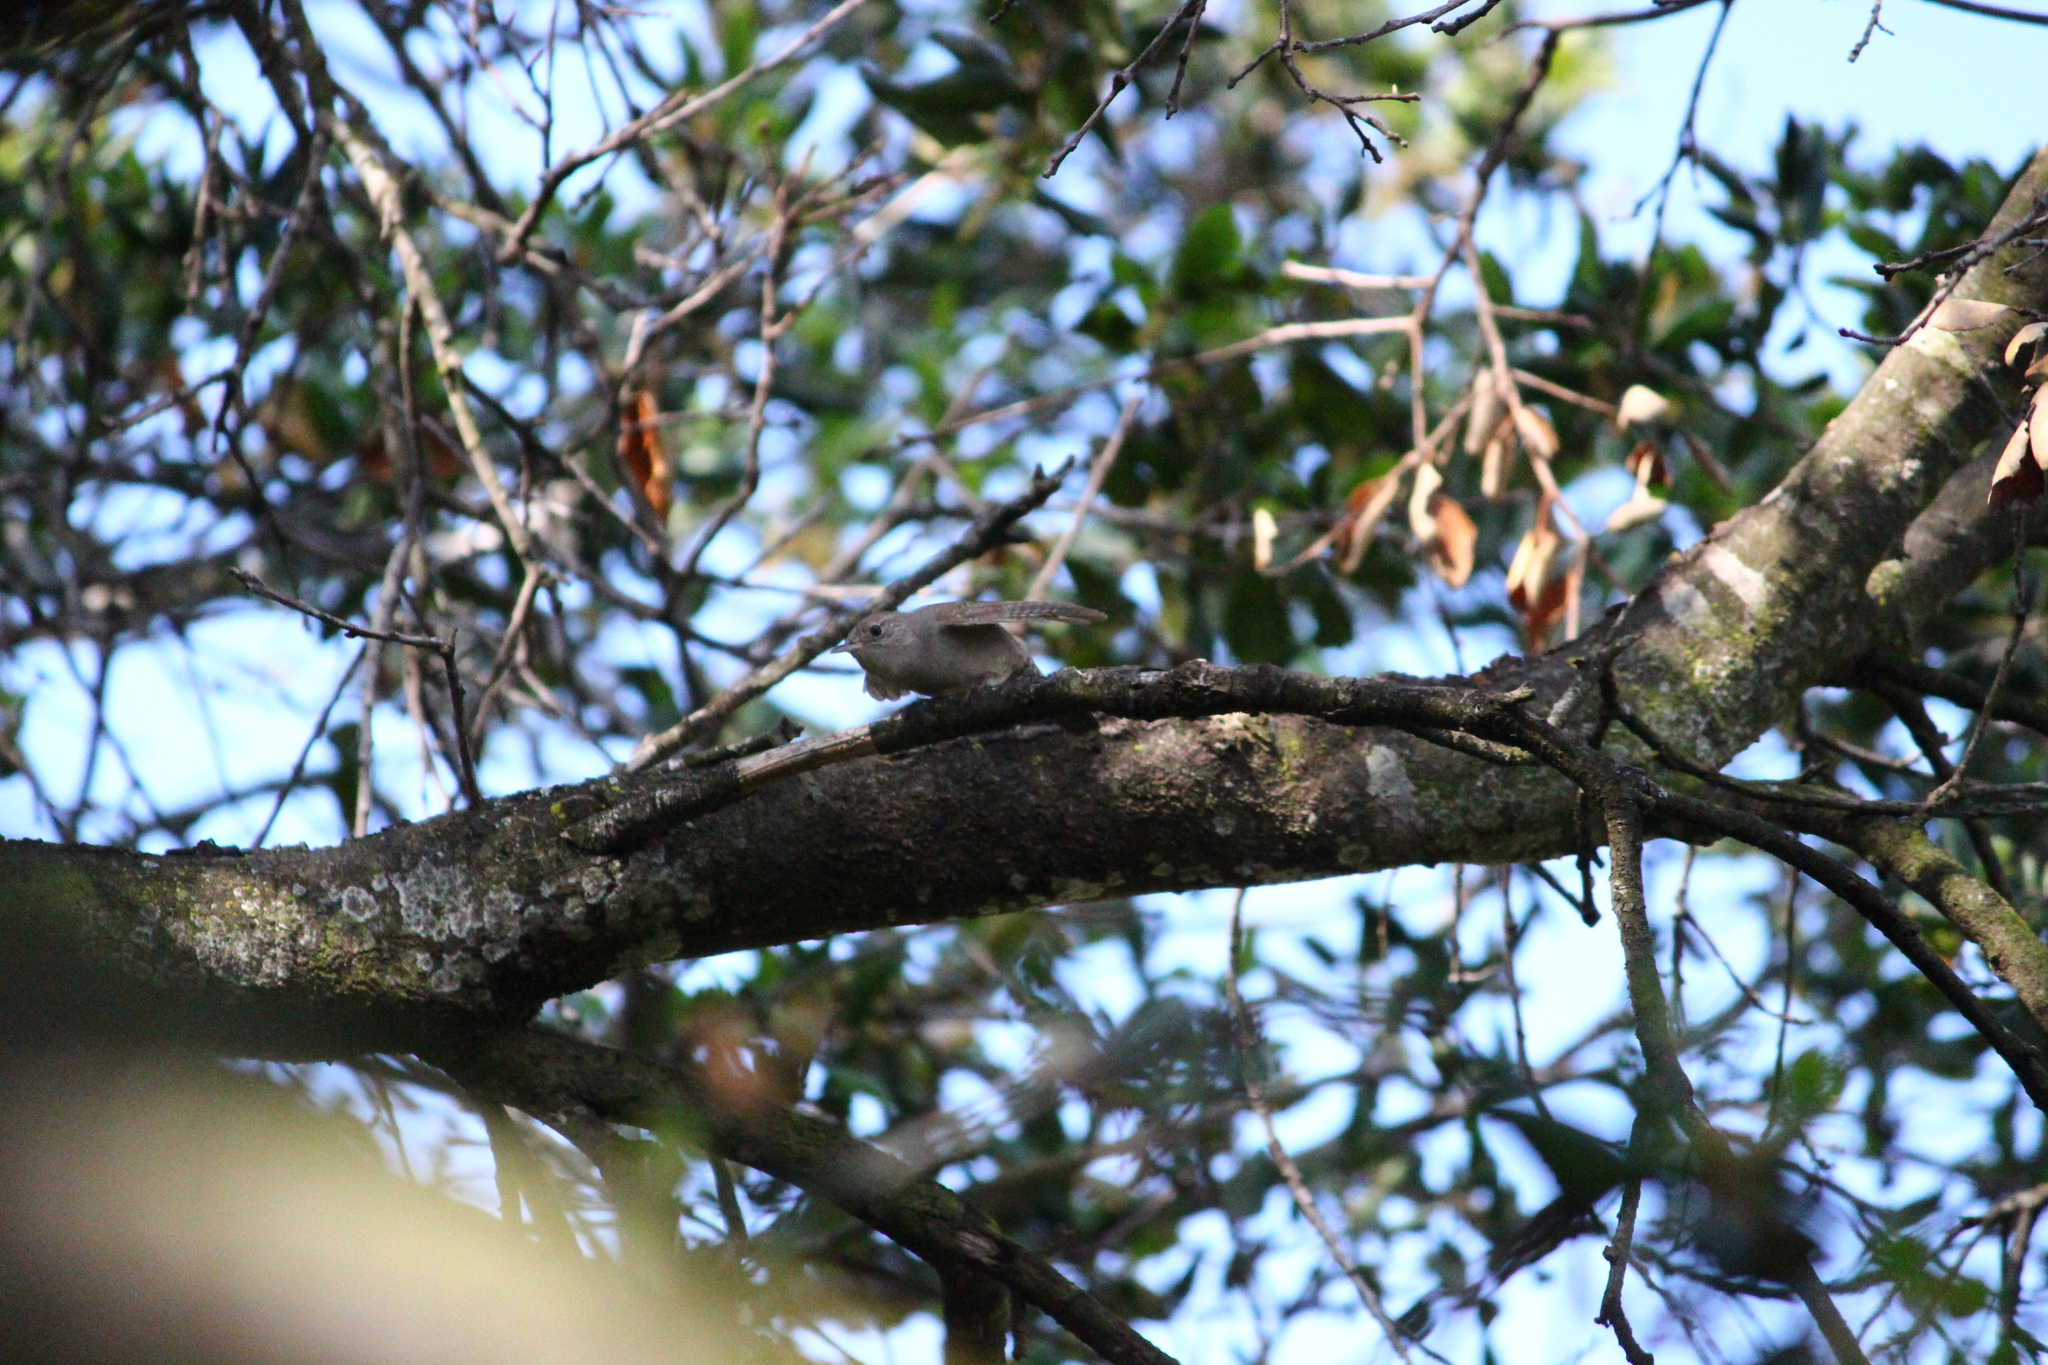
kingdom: Animalia
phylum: Chordata
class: Aves
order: Passeriformes
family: Troglodytidae
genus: Troglodytes
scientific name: Troglodytes aedon
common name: House wren
